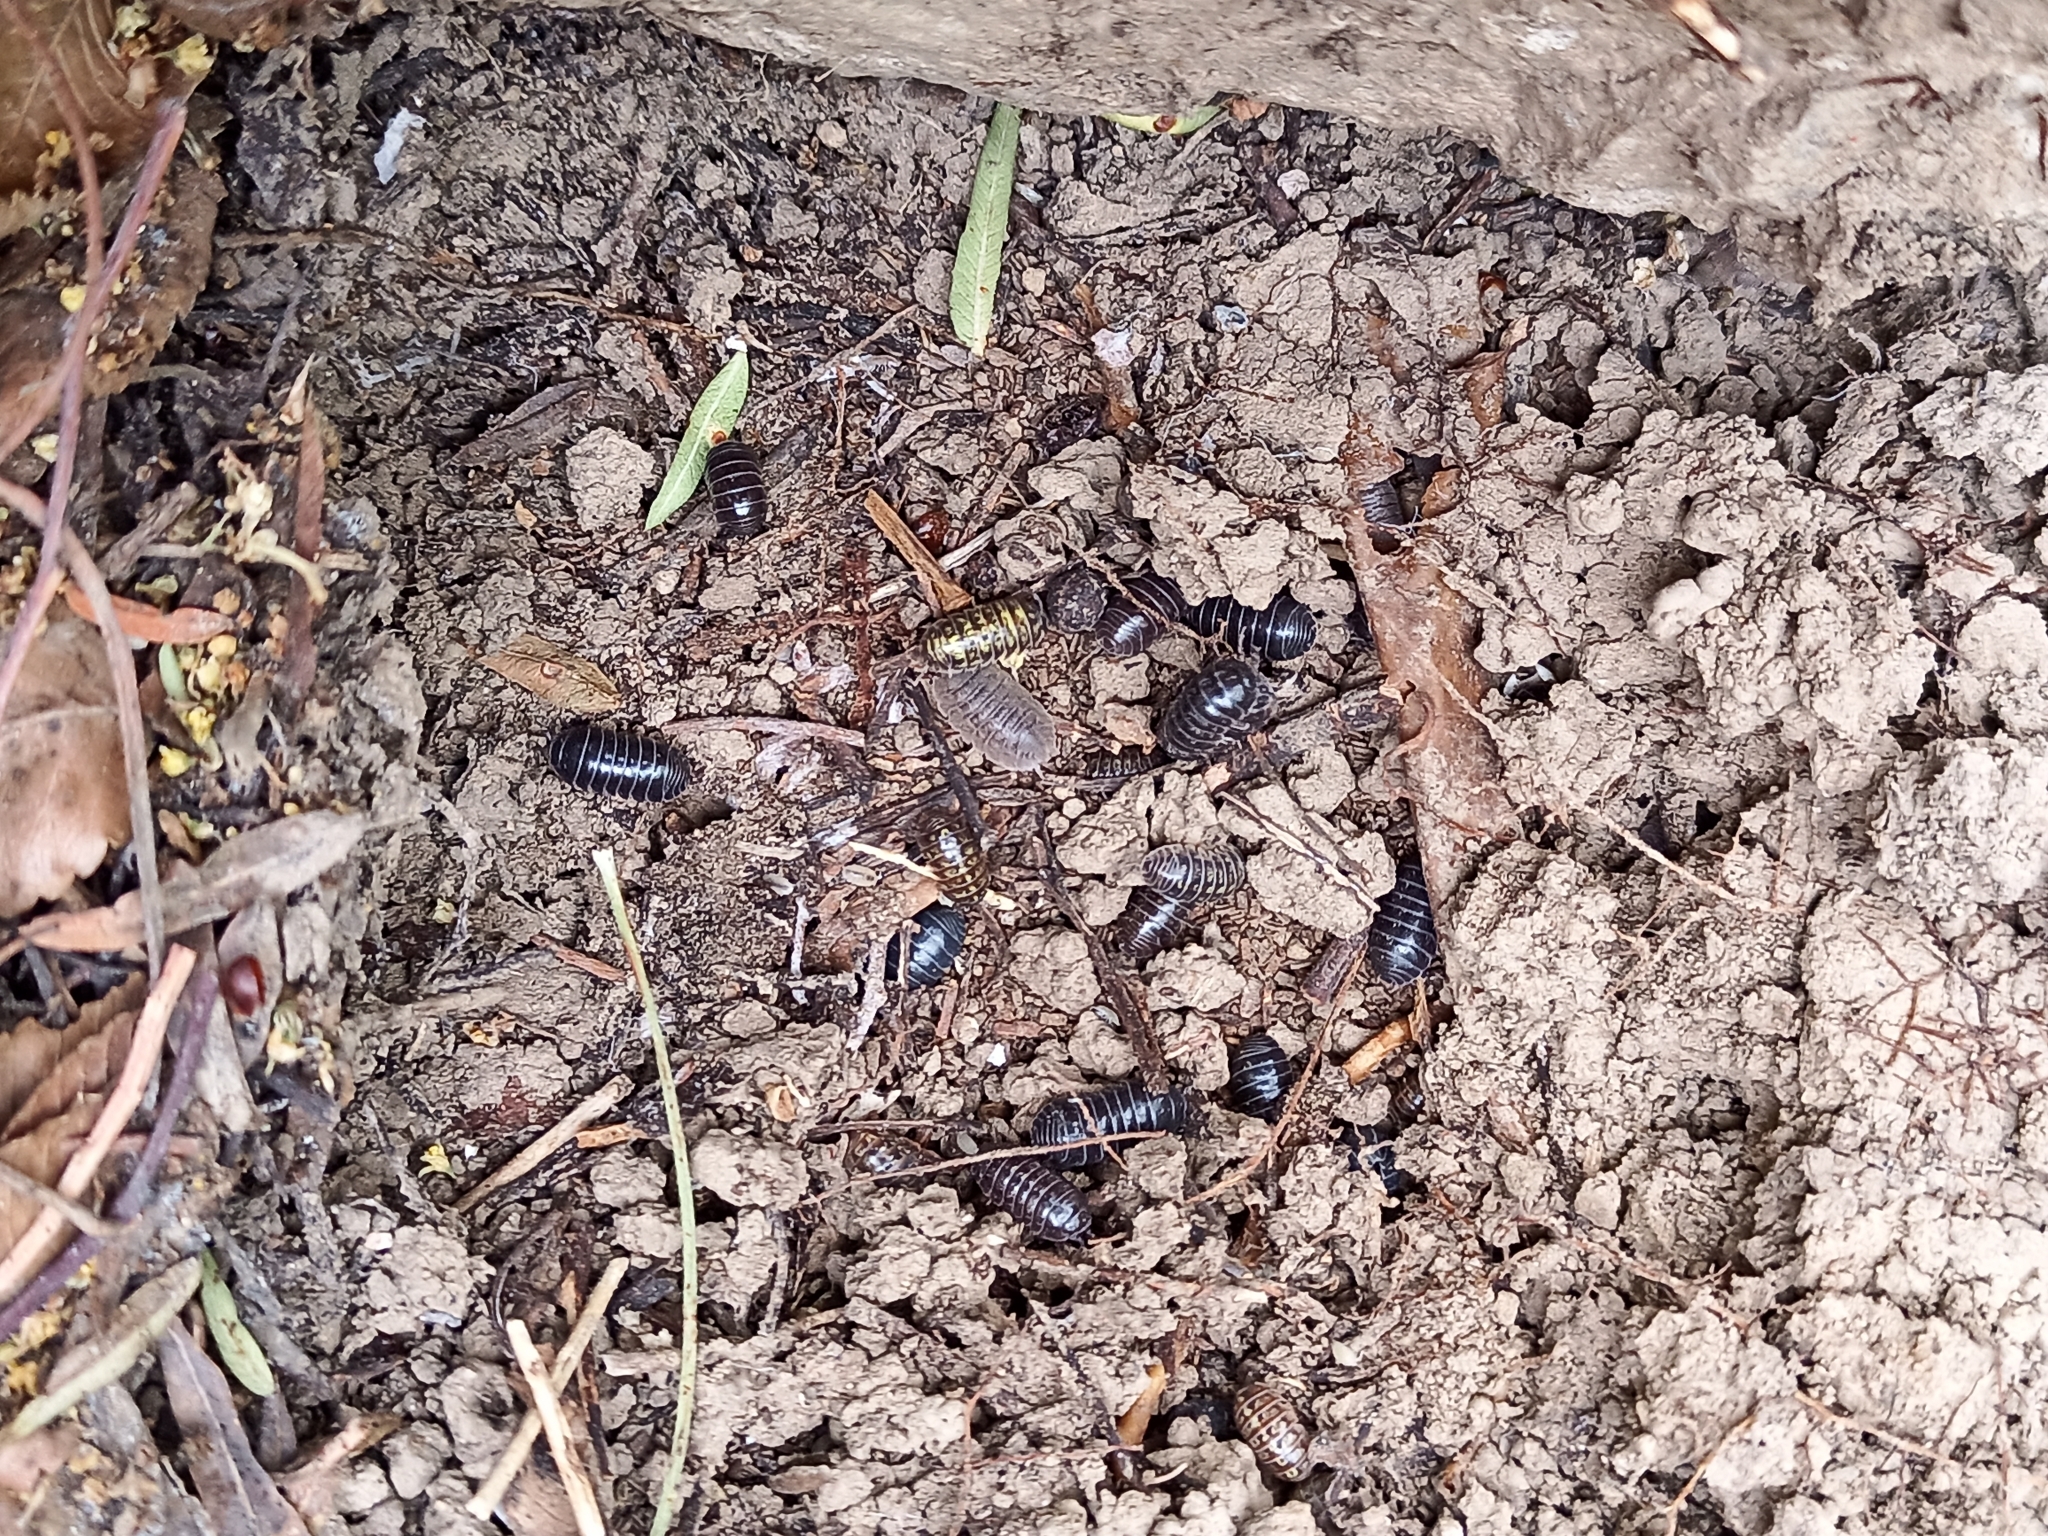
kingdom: Animalia
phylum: Arthropoda
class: Malacostraca
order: Isopoda
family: Armadillidiidae
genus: Armadillidium
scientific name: Armadillidium vulgare
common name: Common pill woodlouse
